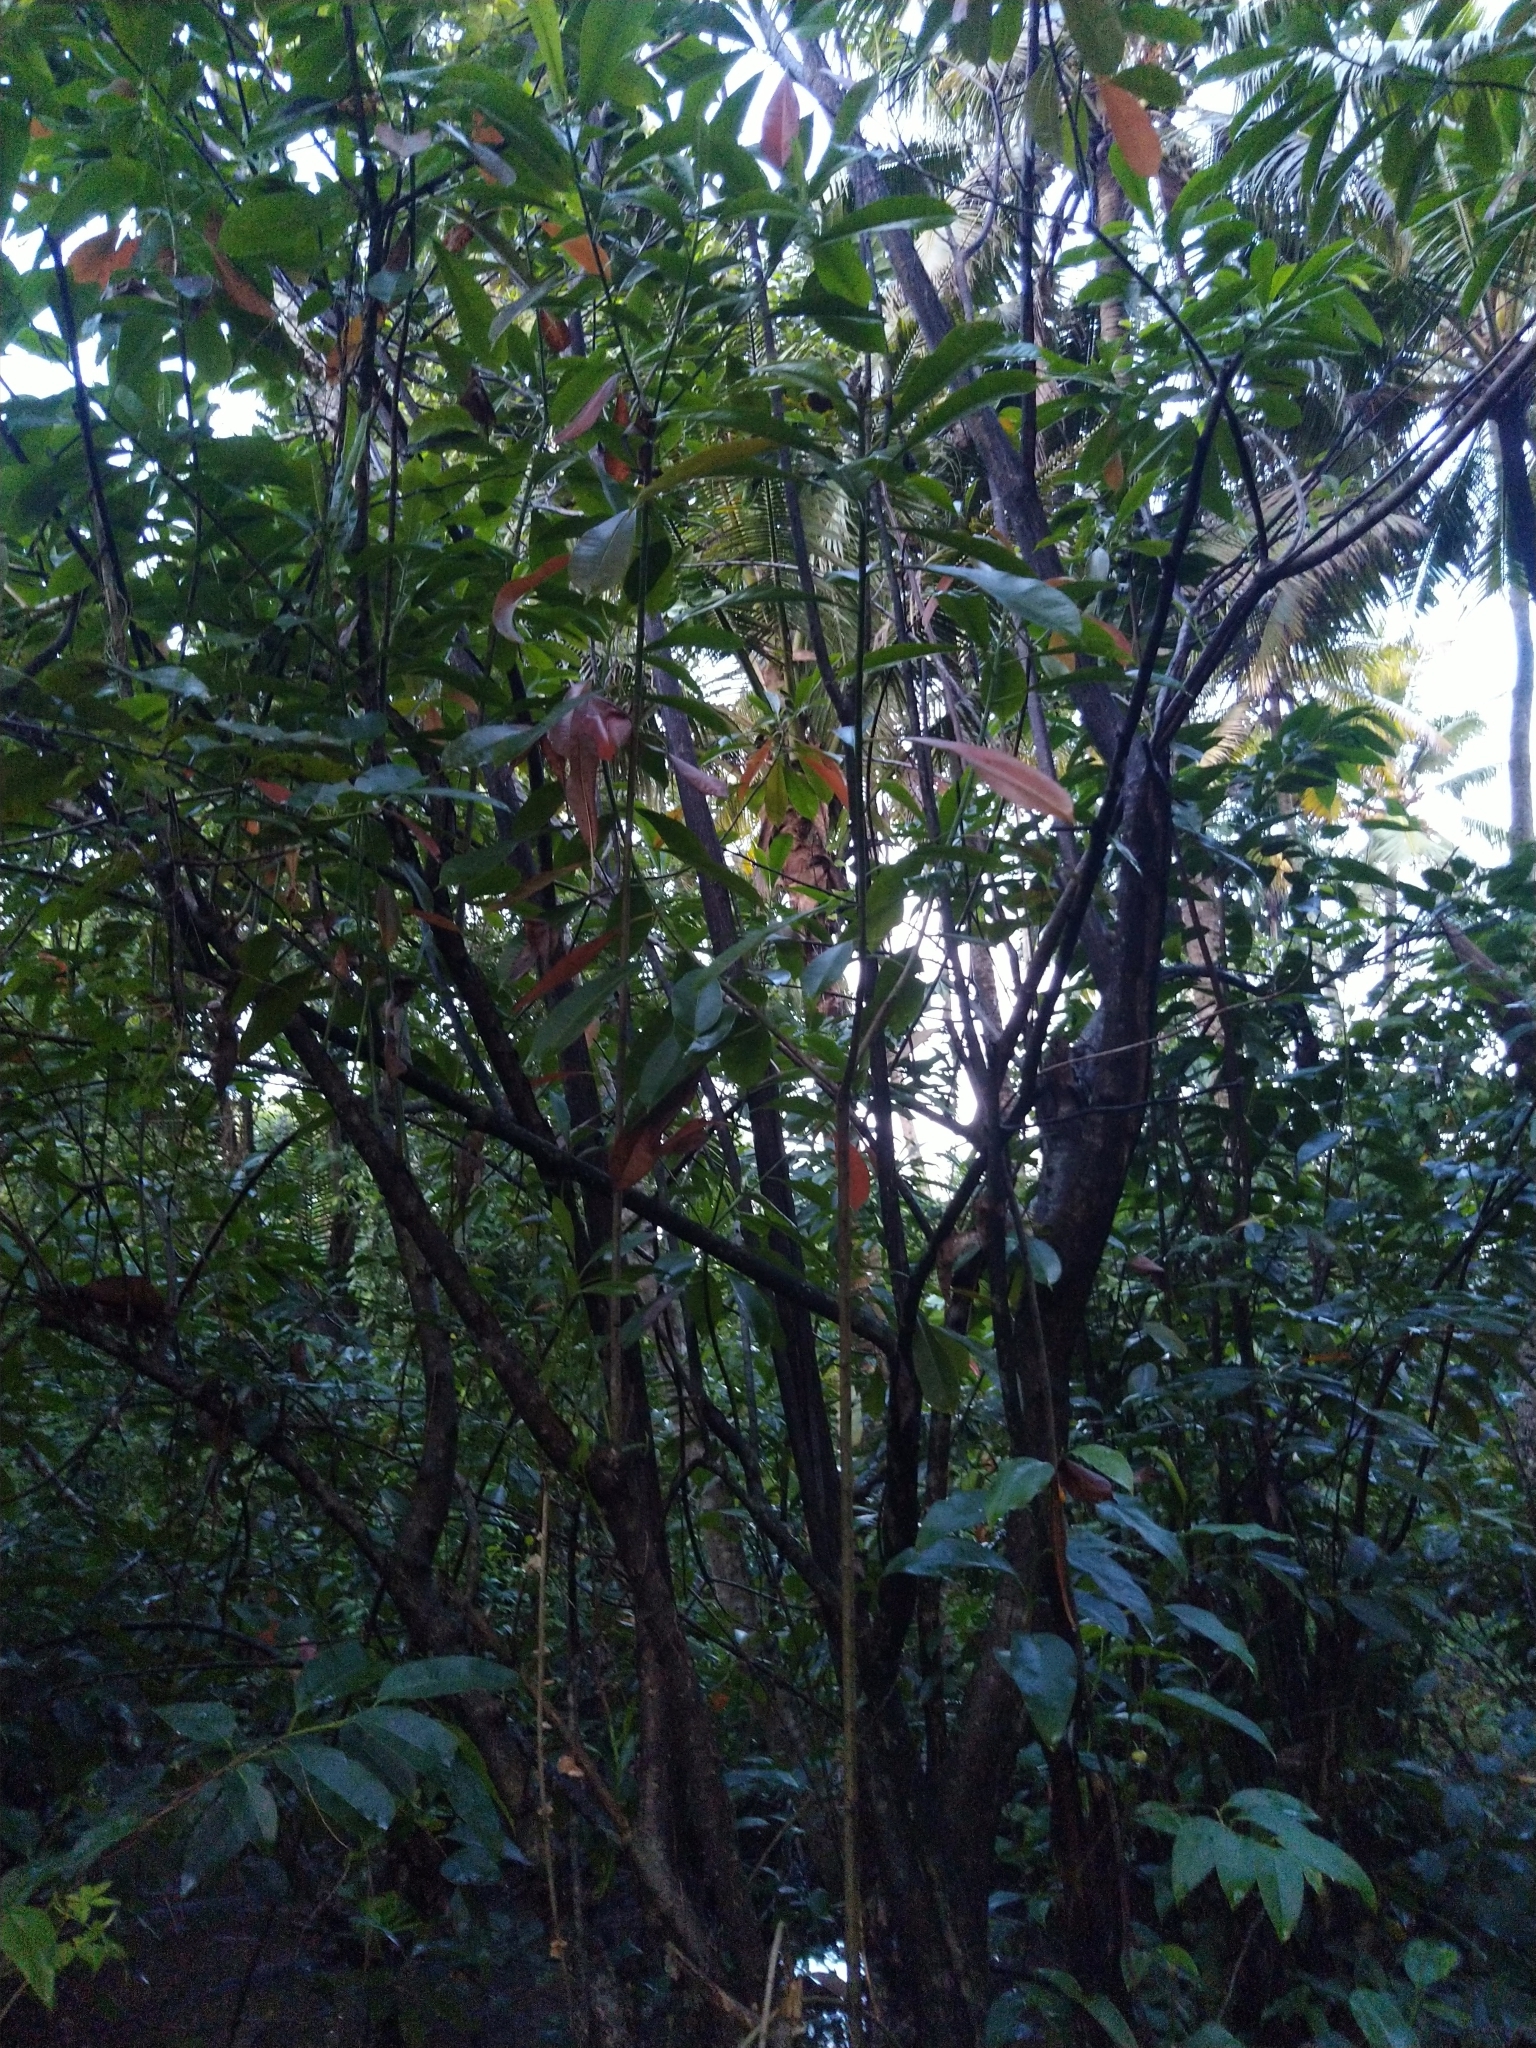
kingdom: Plantae
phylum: Tracheophyta
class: Magnoliopsida
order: Gentianales
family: Apocynaceae
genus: Cerbera
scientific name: Cerbera odollam
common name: Pong-pong
